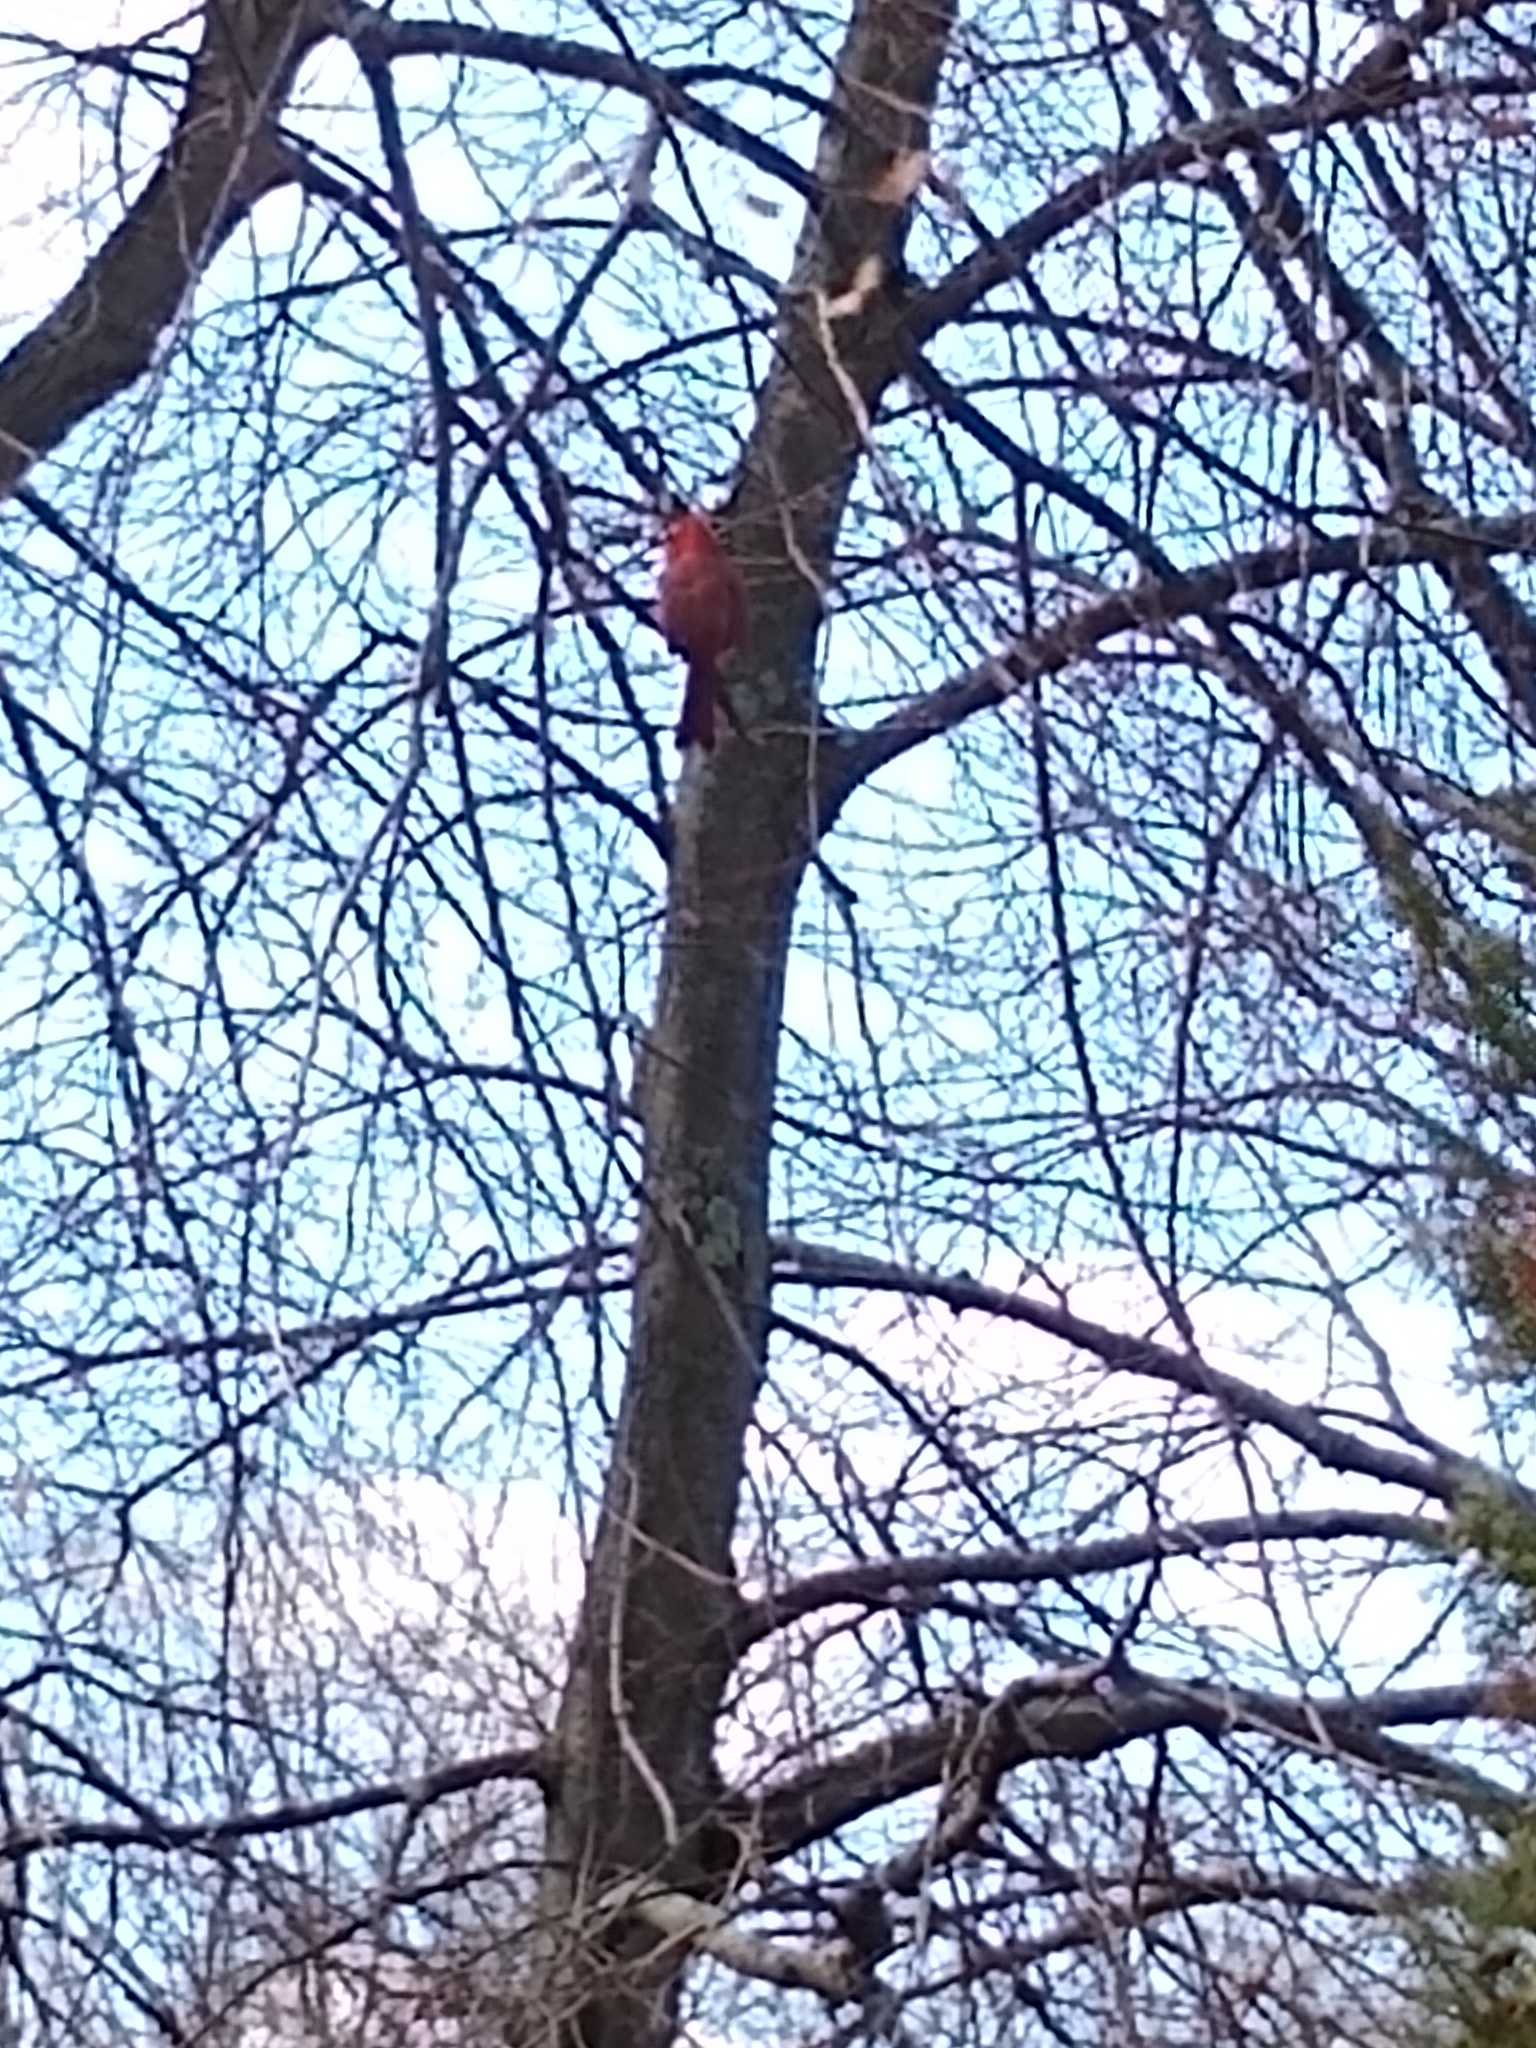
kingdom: Animalia
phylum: Chordata
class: Aves
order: Passeriformes
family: Cardinalidae
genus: Cardinalis
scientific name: Cardinalis cardinalis
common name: Northern cardinal
